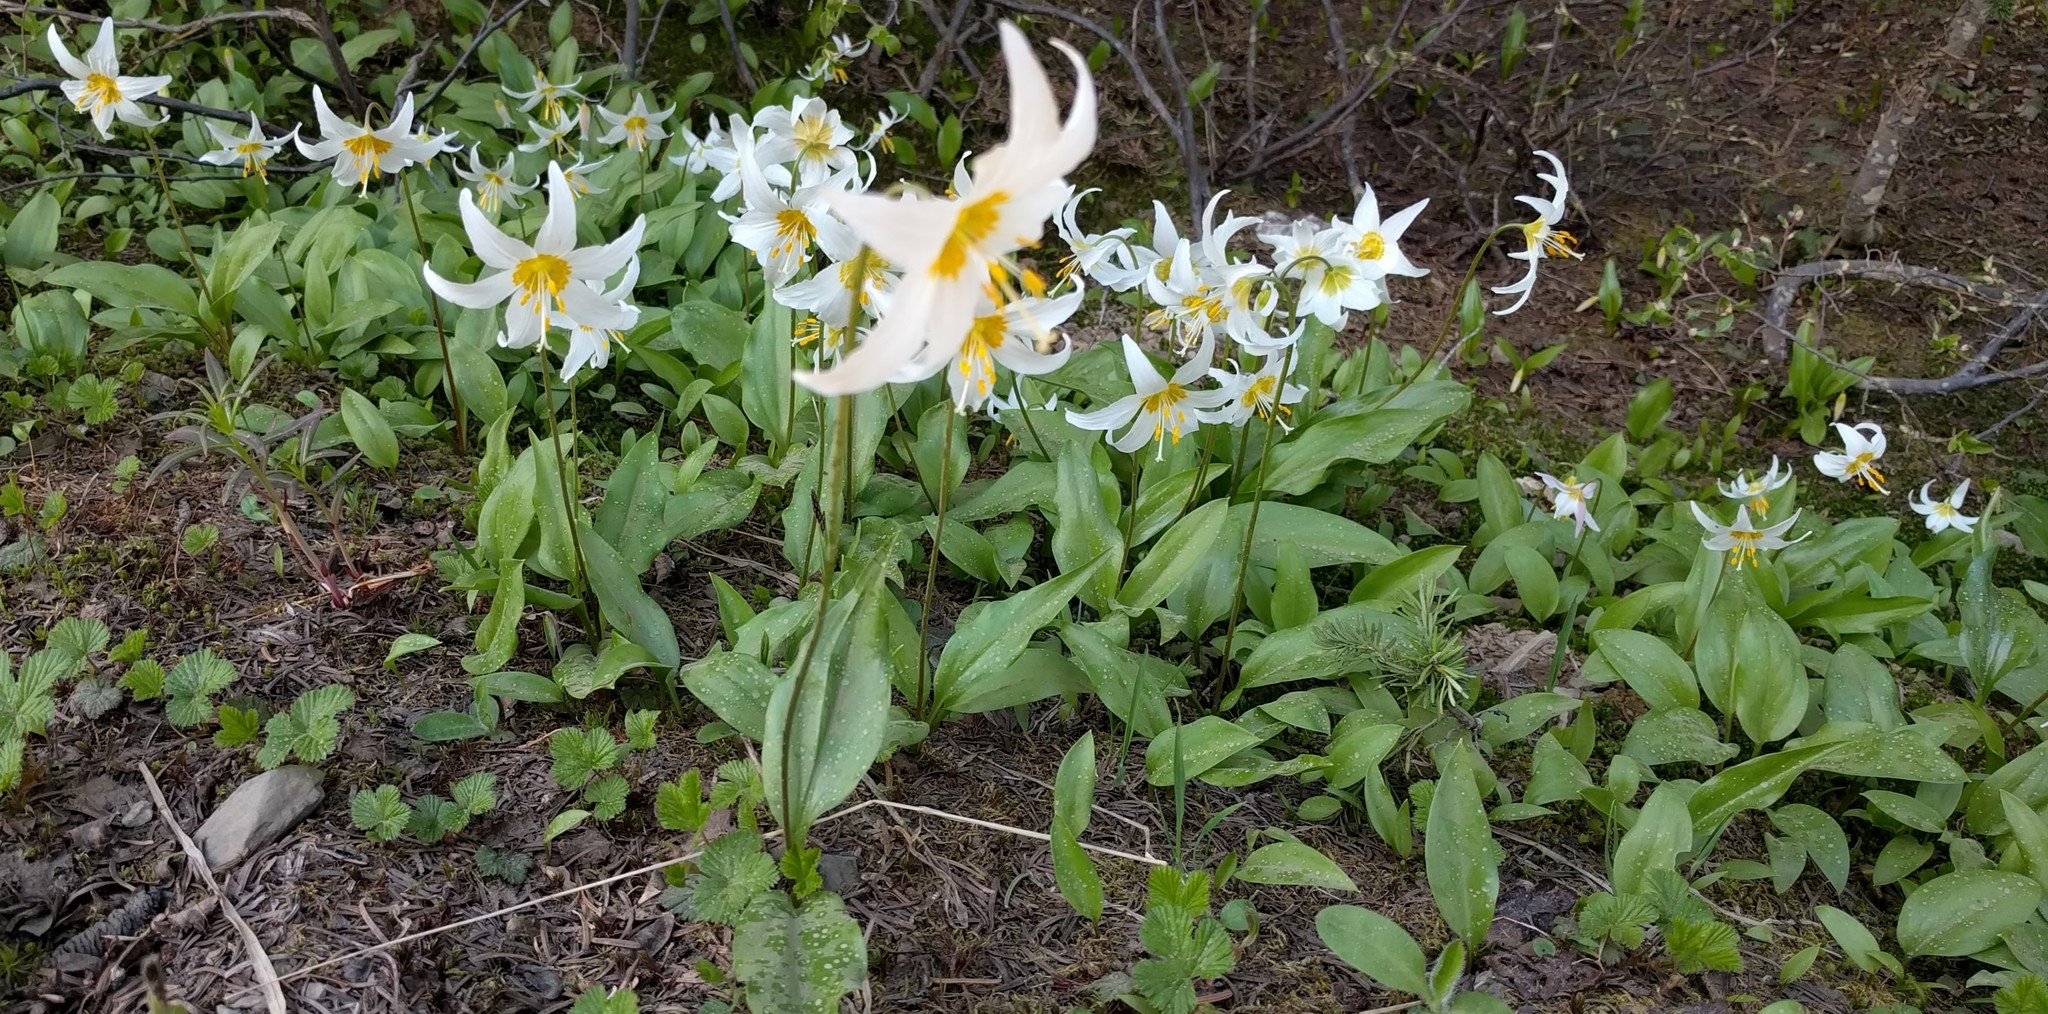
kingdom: Plantae
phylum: Tracheophyta
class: Liliopsida
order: Liliales
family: Liliaceae
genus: Erythronium
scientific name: Erythronium montanum
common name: Avalanche lily
